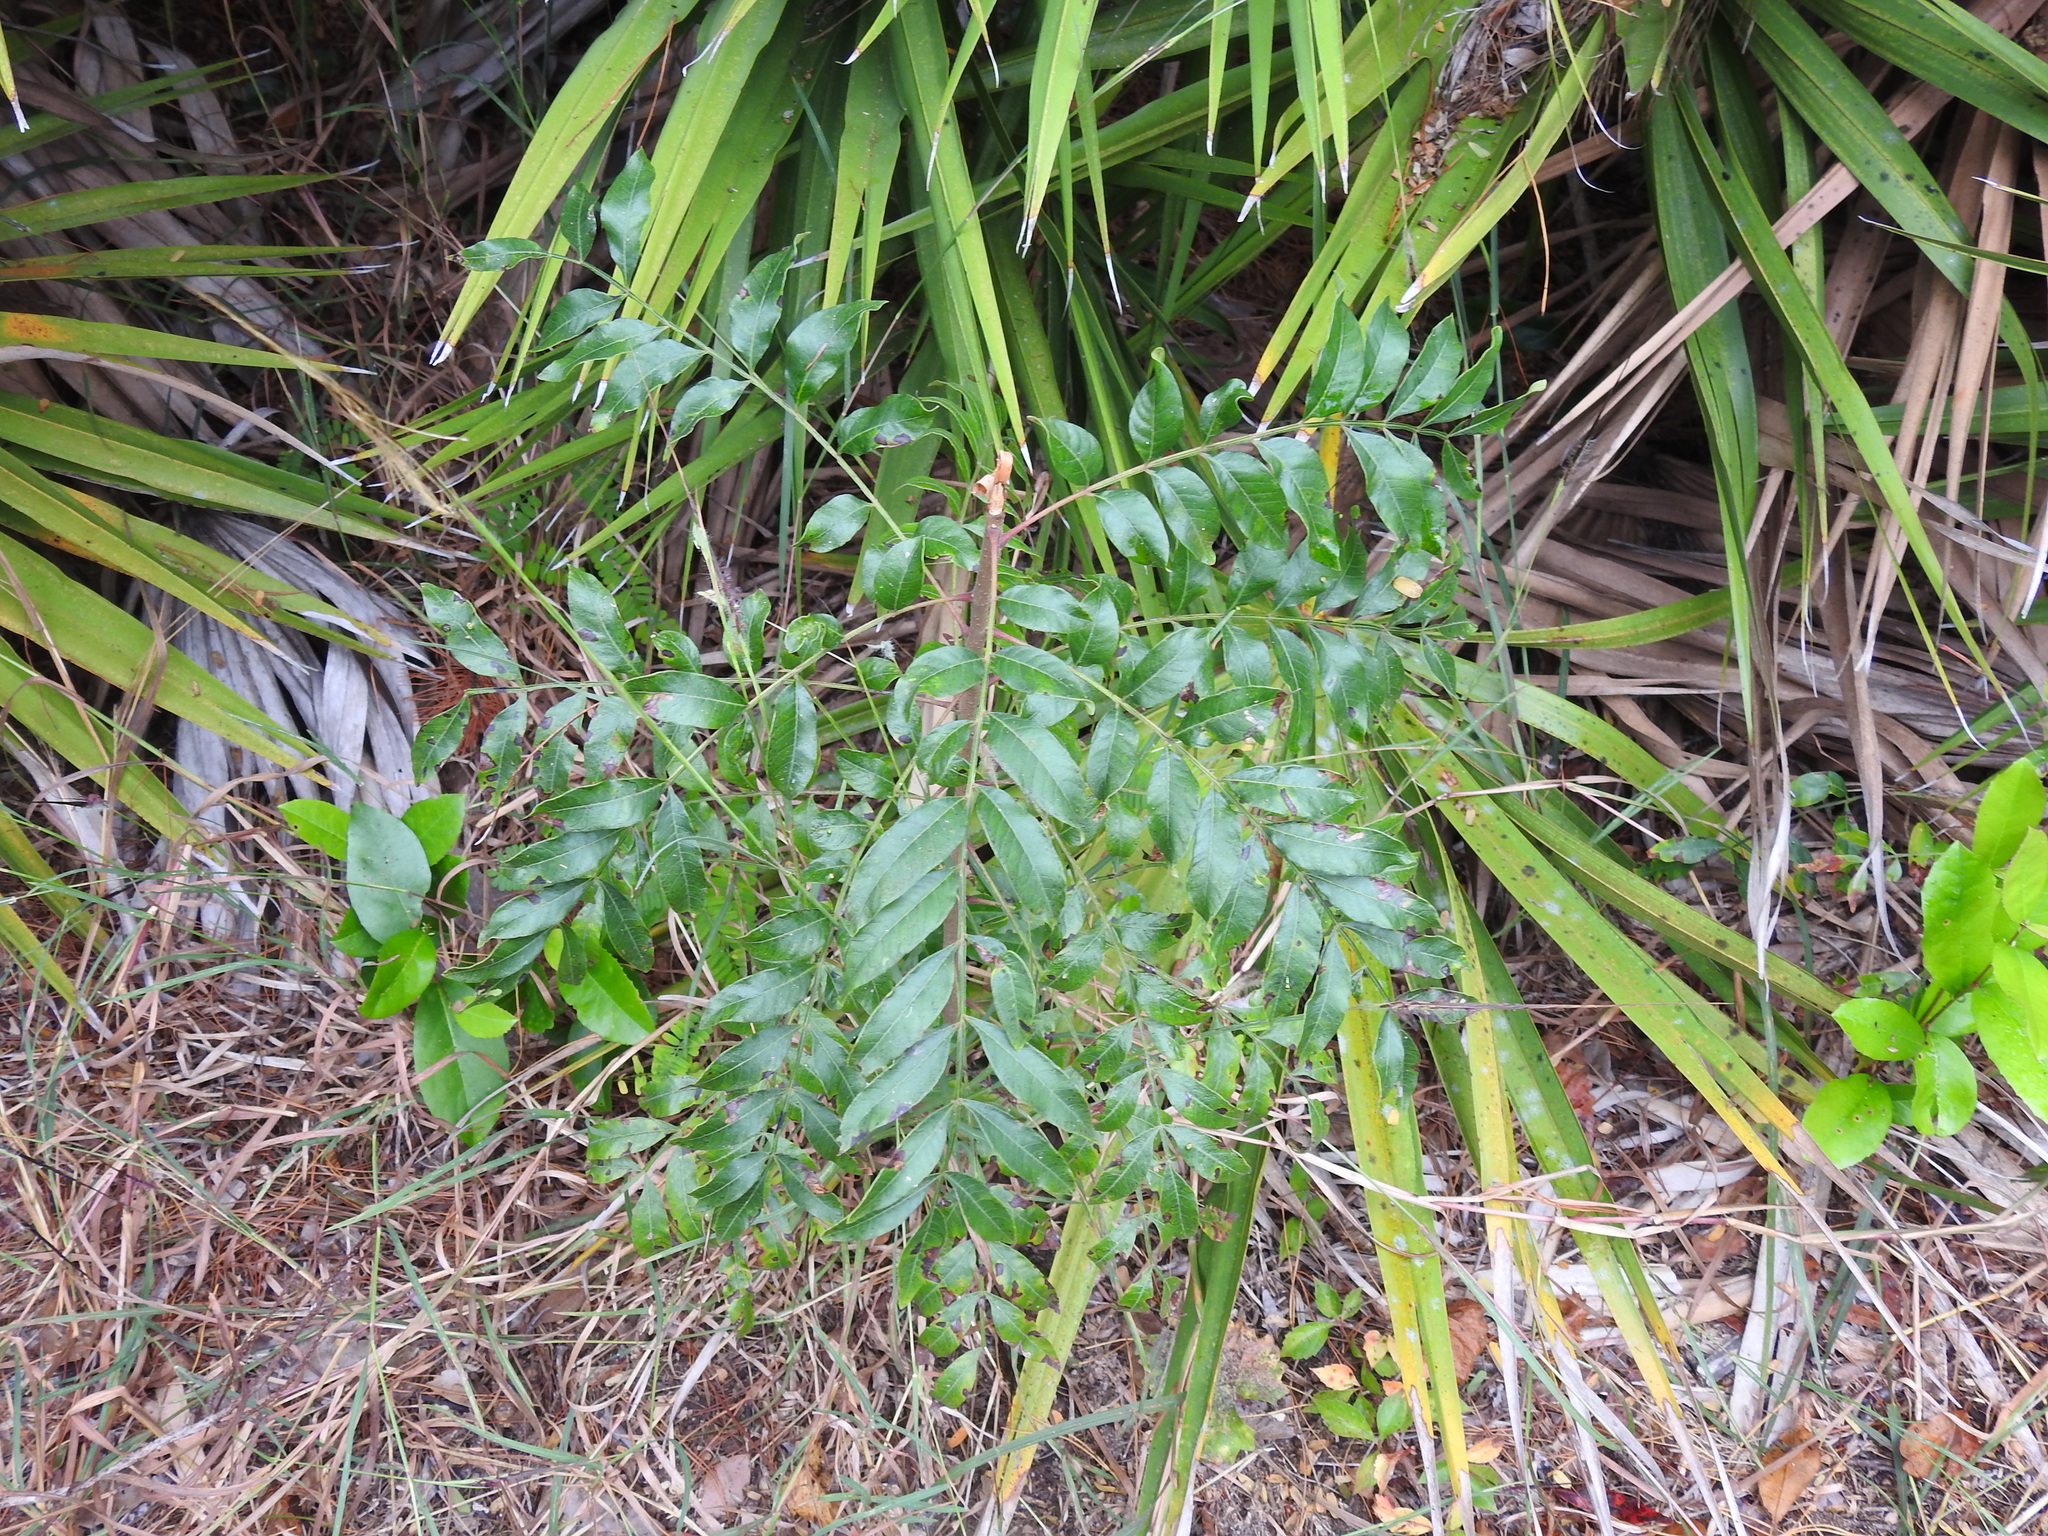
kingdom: Plantae
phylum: Tracheophyta
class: Magnoliopsida
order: Sapindales
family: Anacardiaceae
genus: Rhus
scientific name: Rhus copallina
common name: Shining sumac
